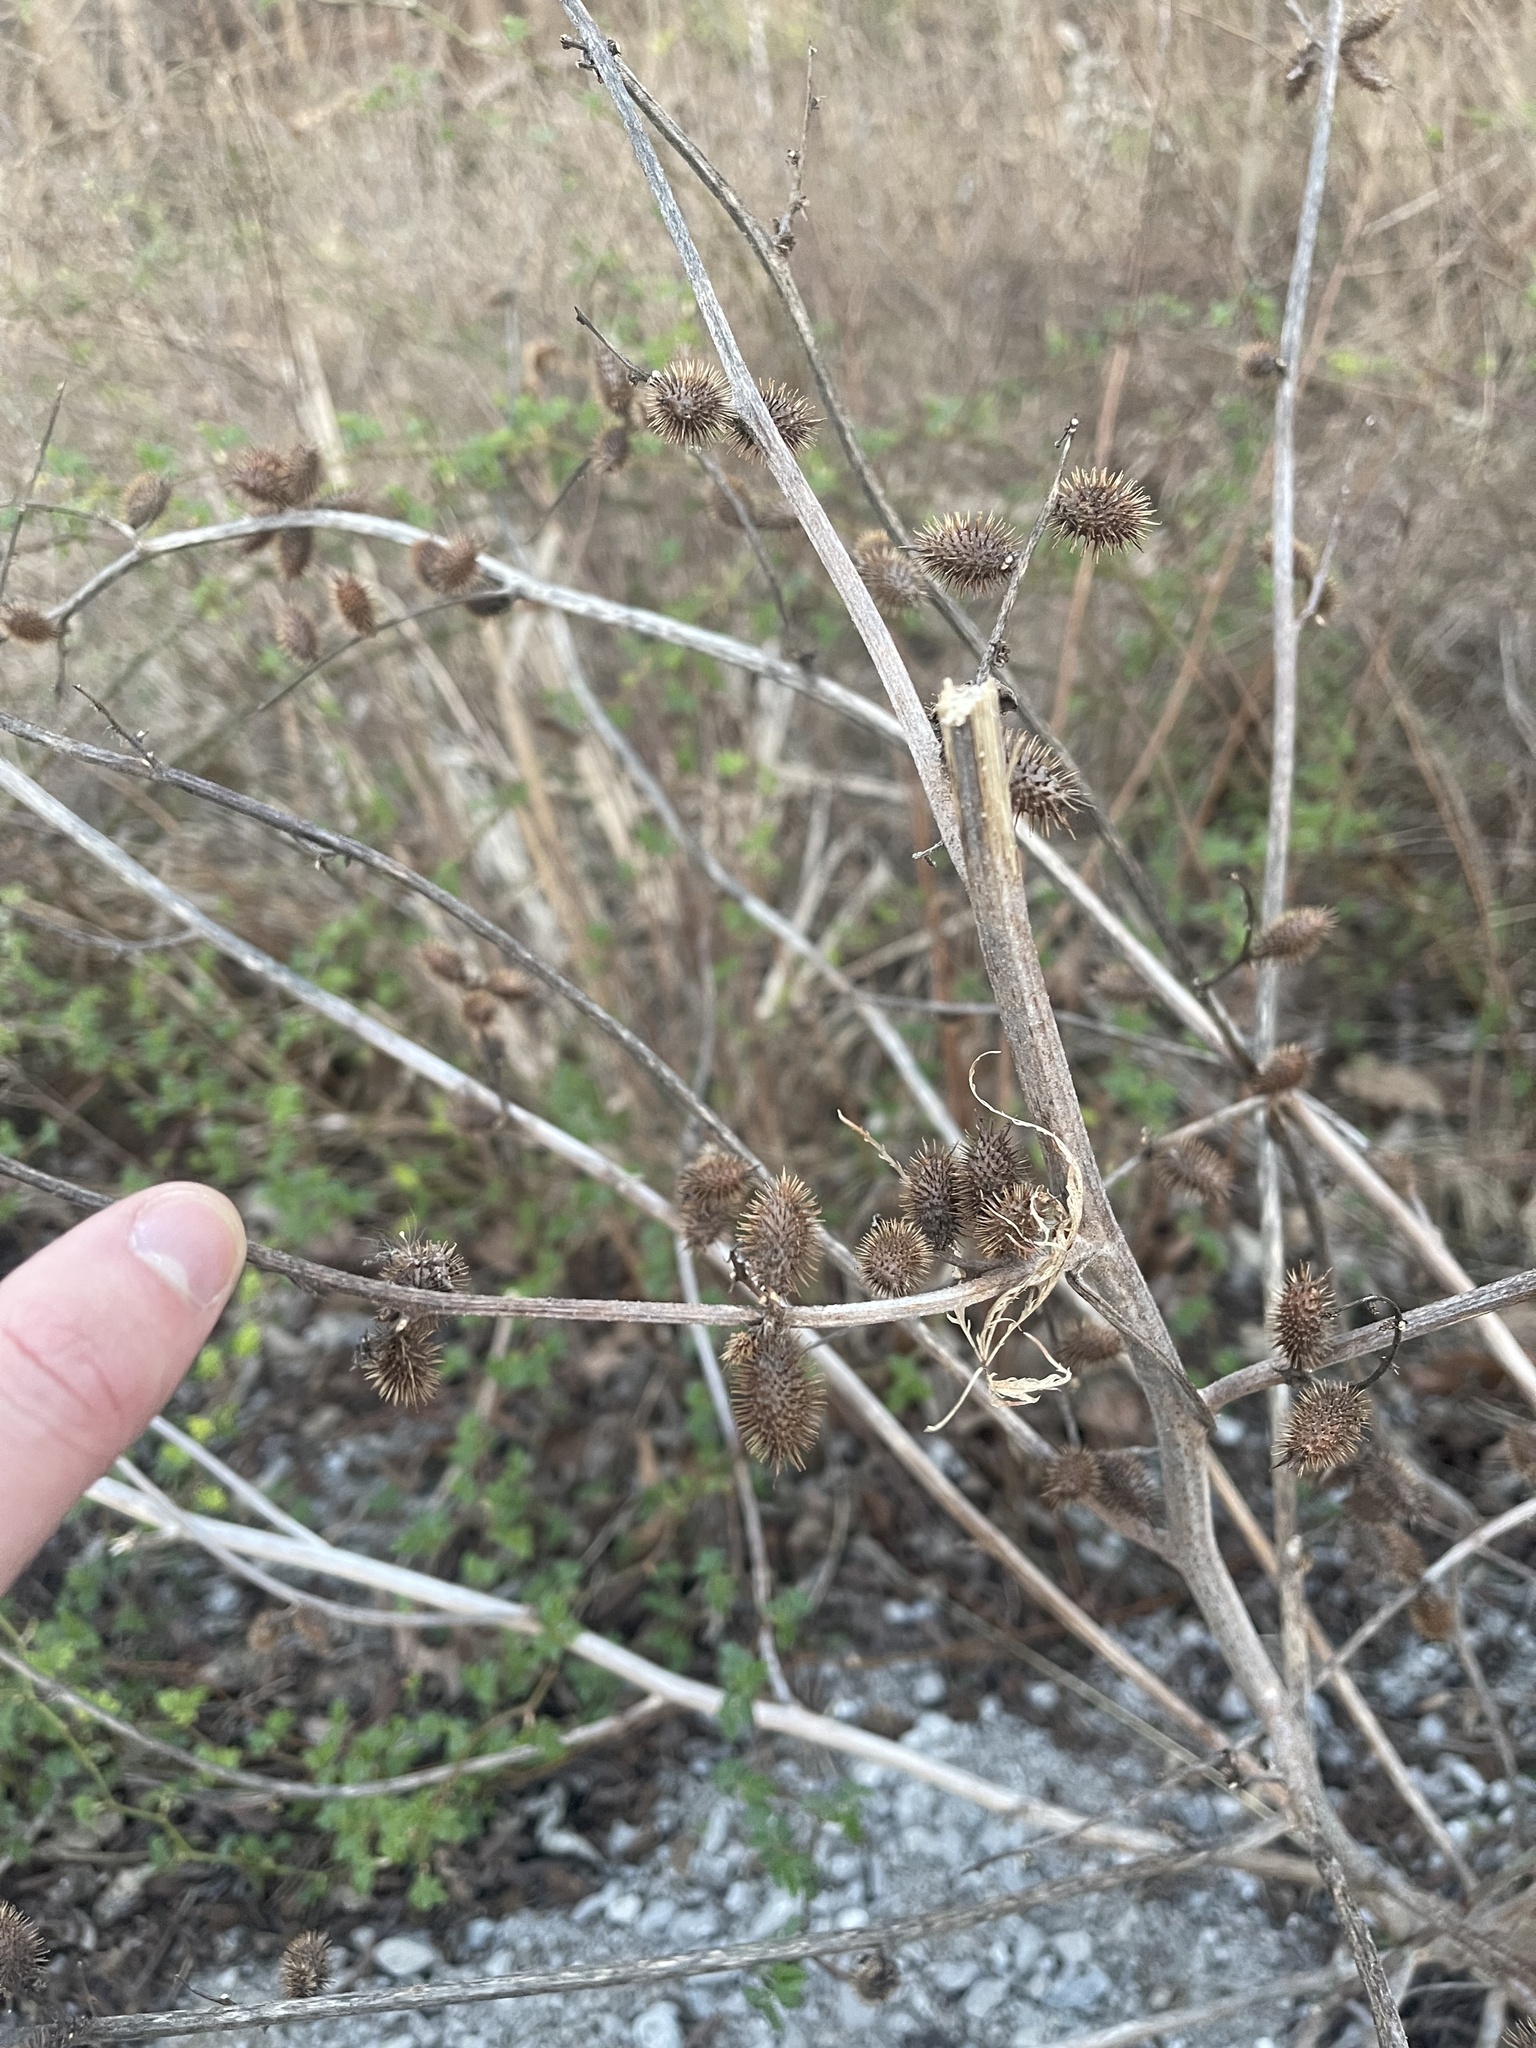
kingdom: Plantae
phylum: Tracheophyta
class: Magnoliopsida
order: Asterales
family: Asteraceae
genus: Xanthium
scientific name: Xanthium strumarium
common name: Rough cocklebur
